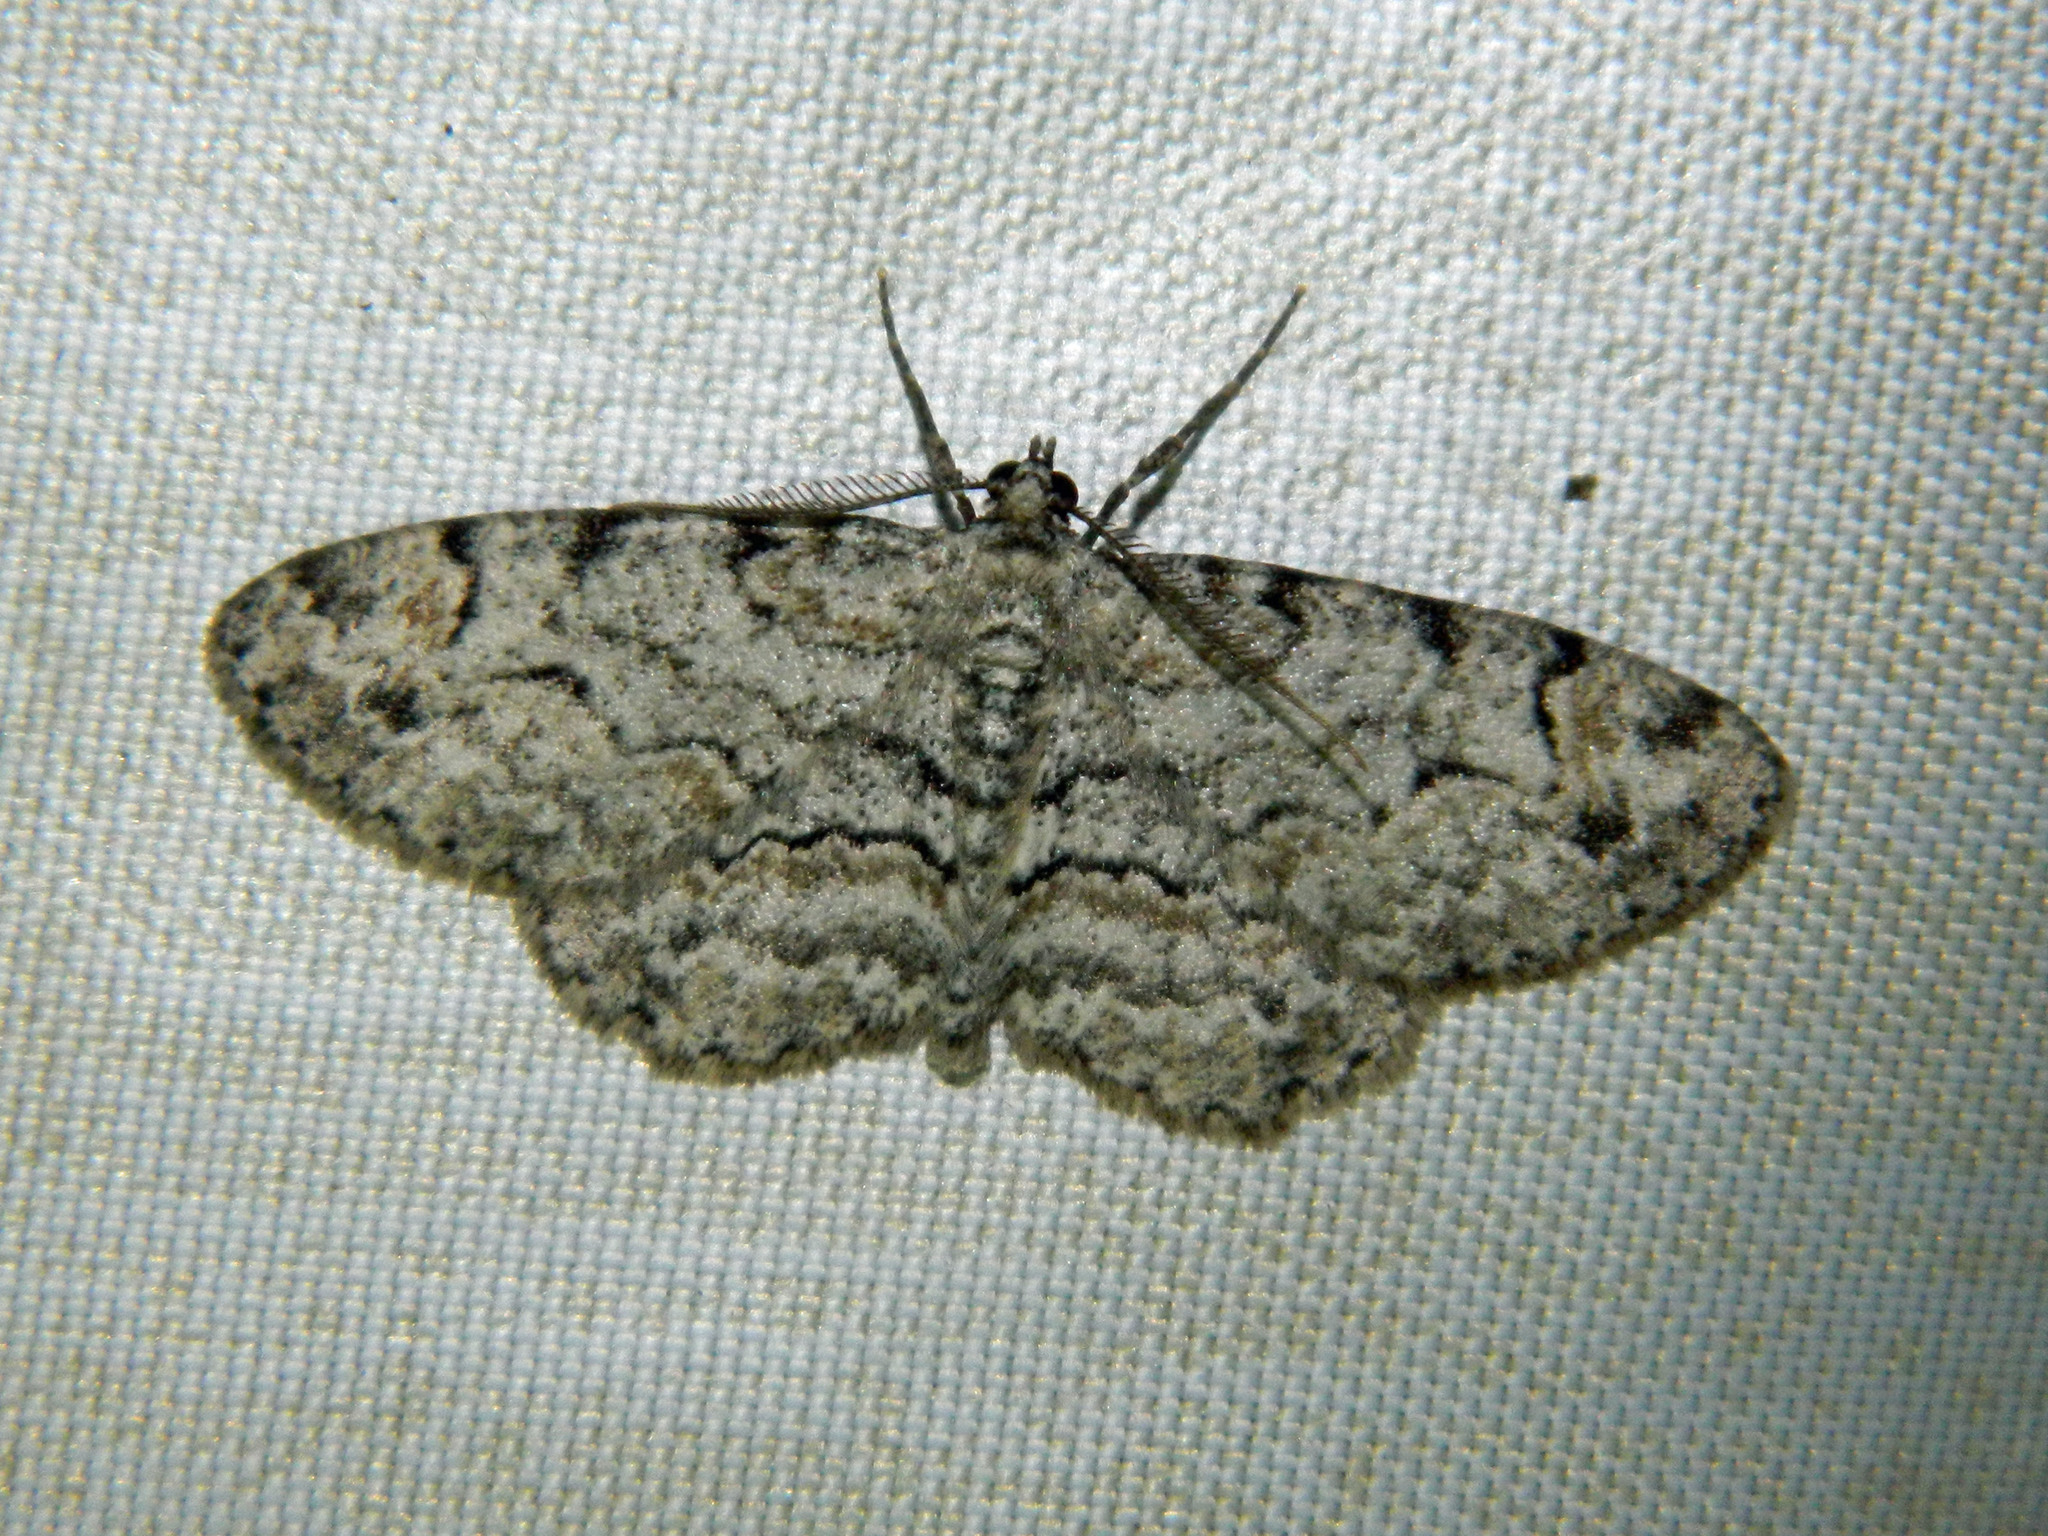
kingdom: Animalia
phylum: Arthropoda
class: Insecta
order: Lepidoptera
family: Geometridae
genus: Iridopsis
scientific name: Iridopsis ephyraria
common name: Pale-winged gray
